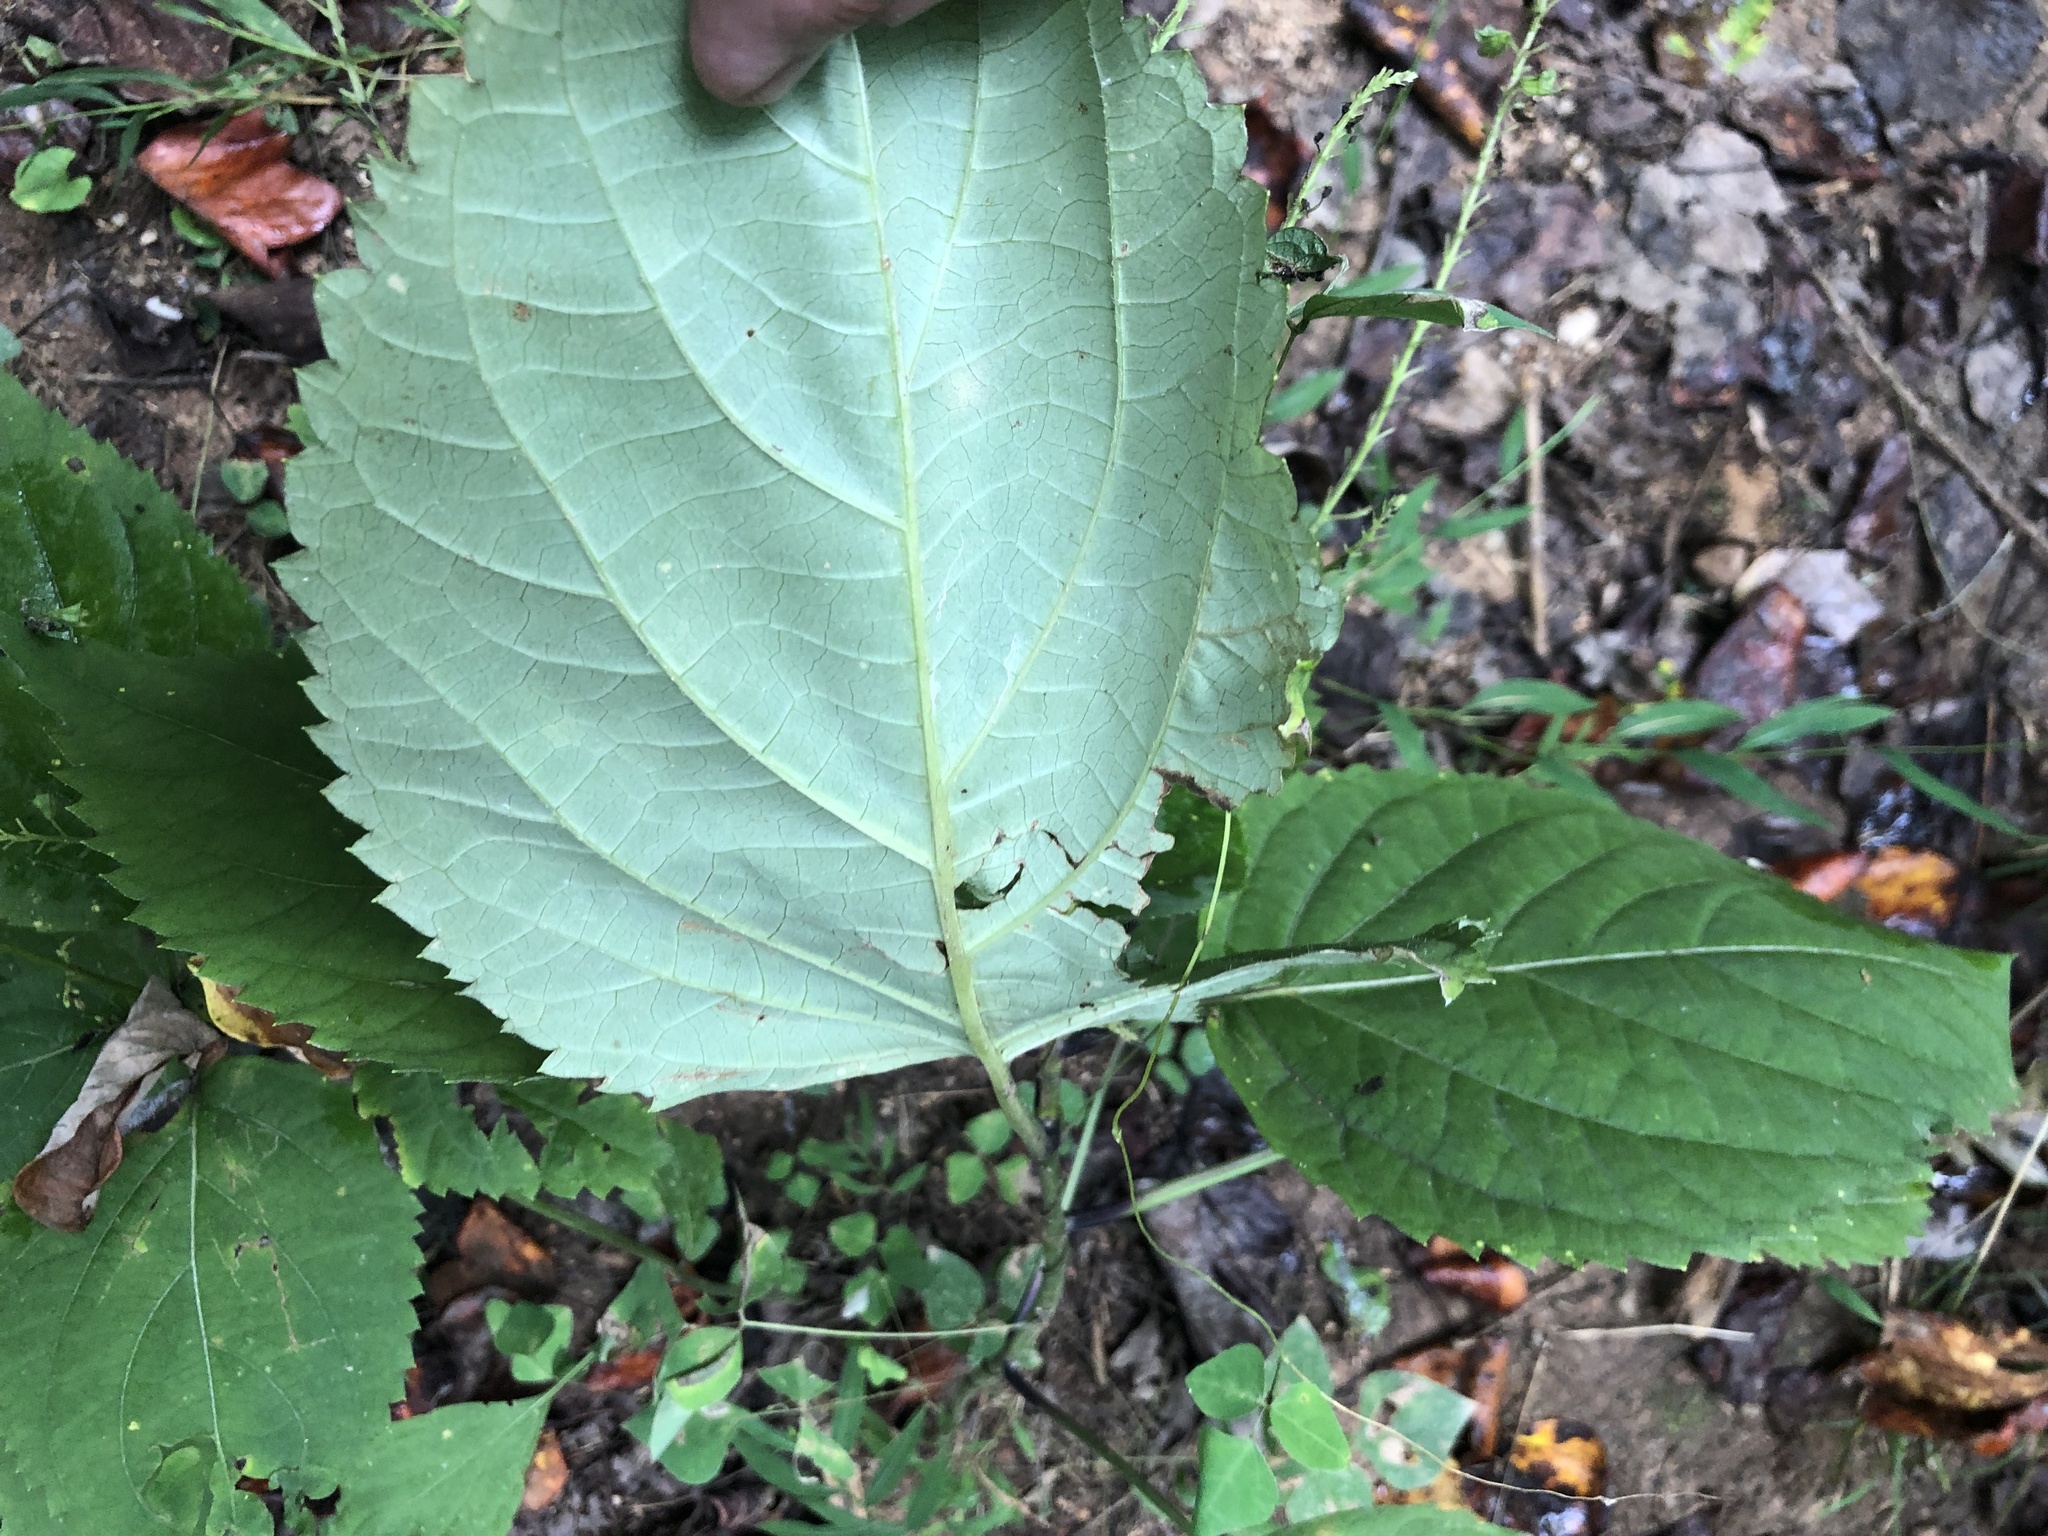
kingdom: Plantae
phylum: Tracheophyta
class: Magnoliopsida
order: Lamiales
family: Lamiaceae
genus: Collinsonia
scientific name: Collinsonia canadensis
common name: Northern horsebalm
